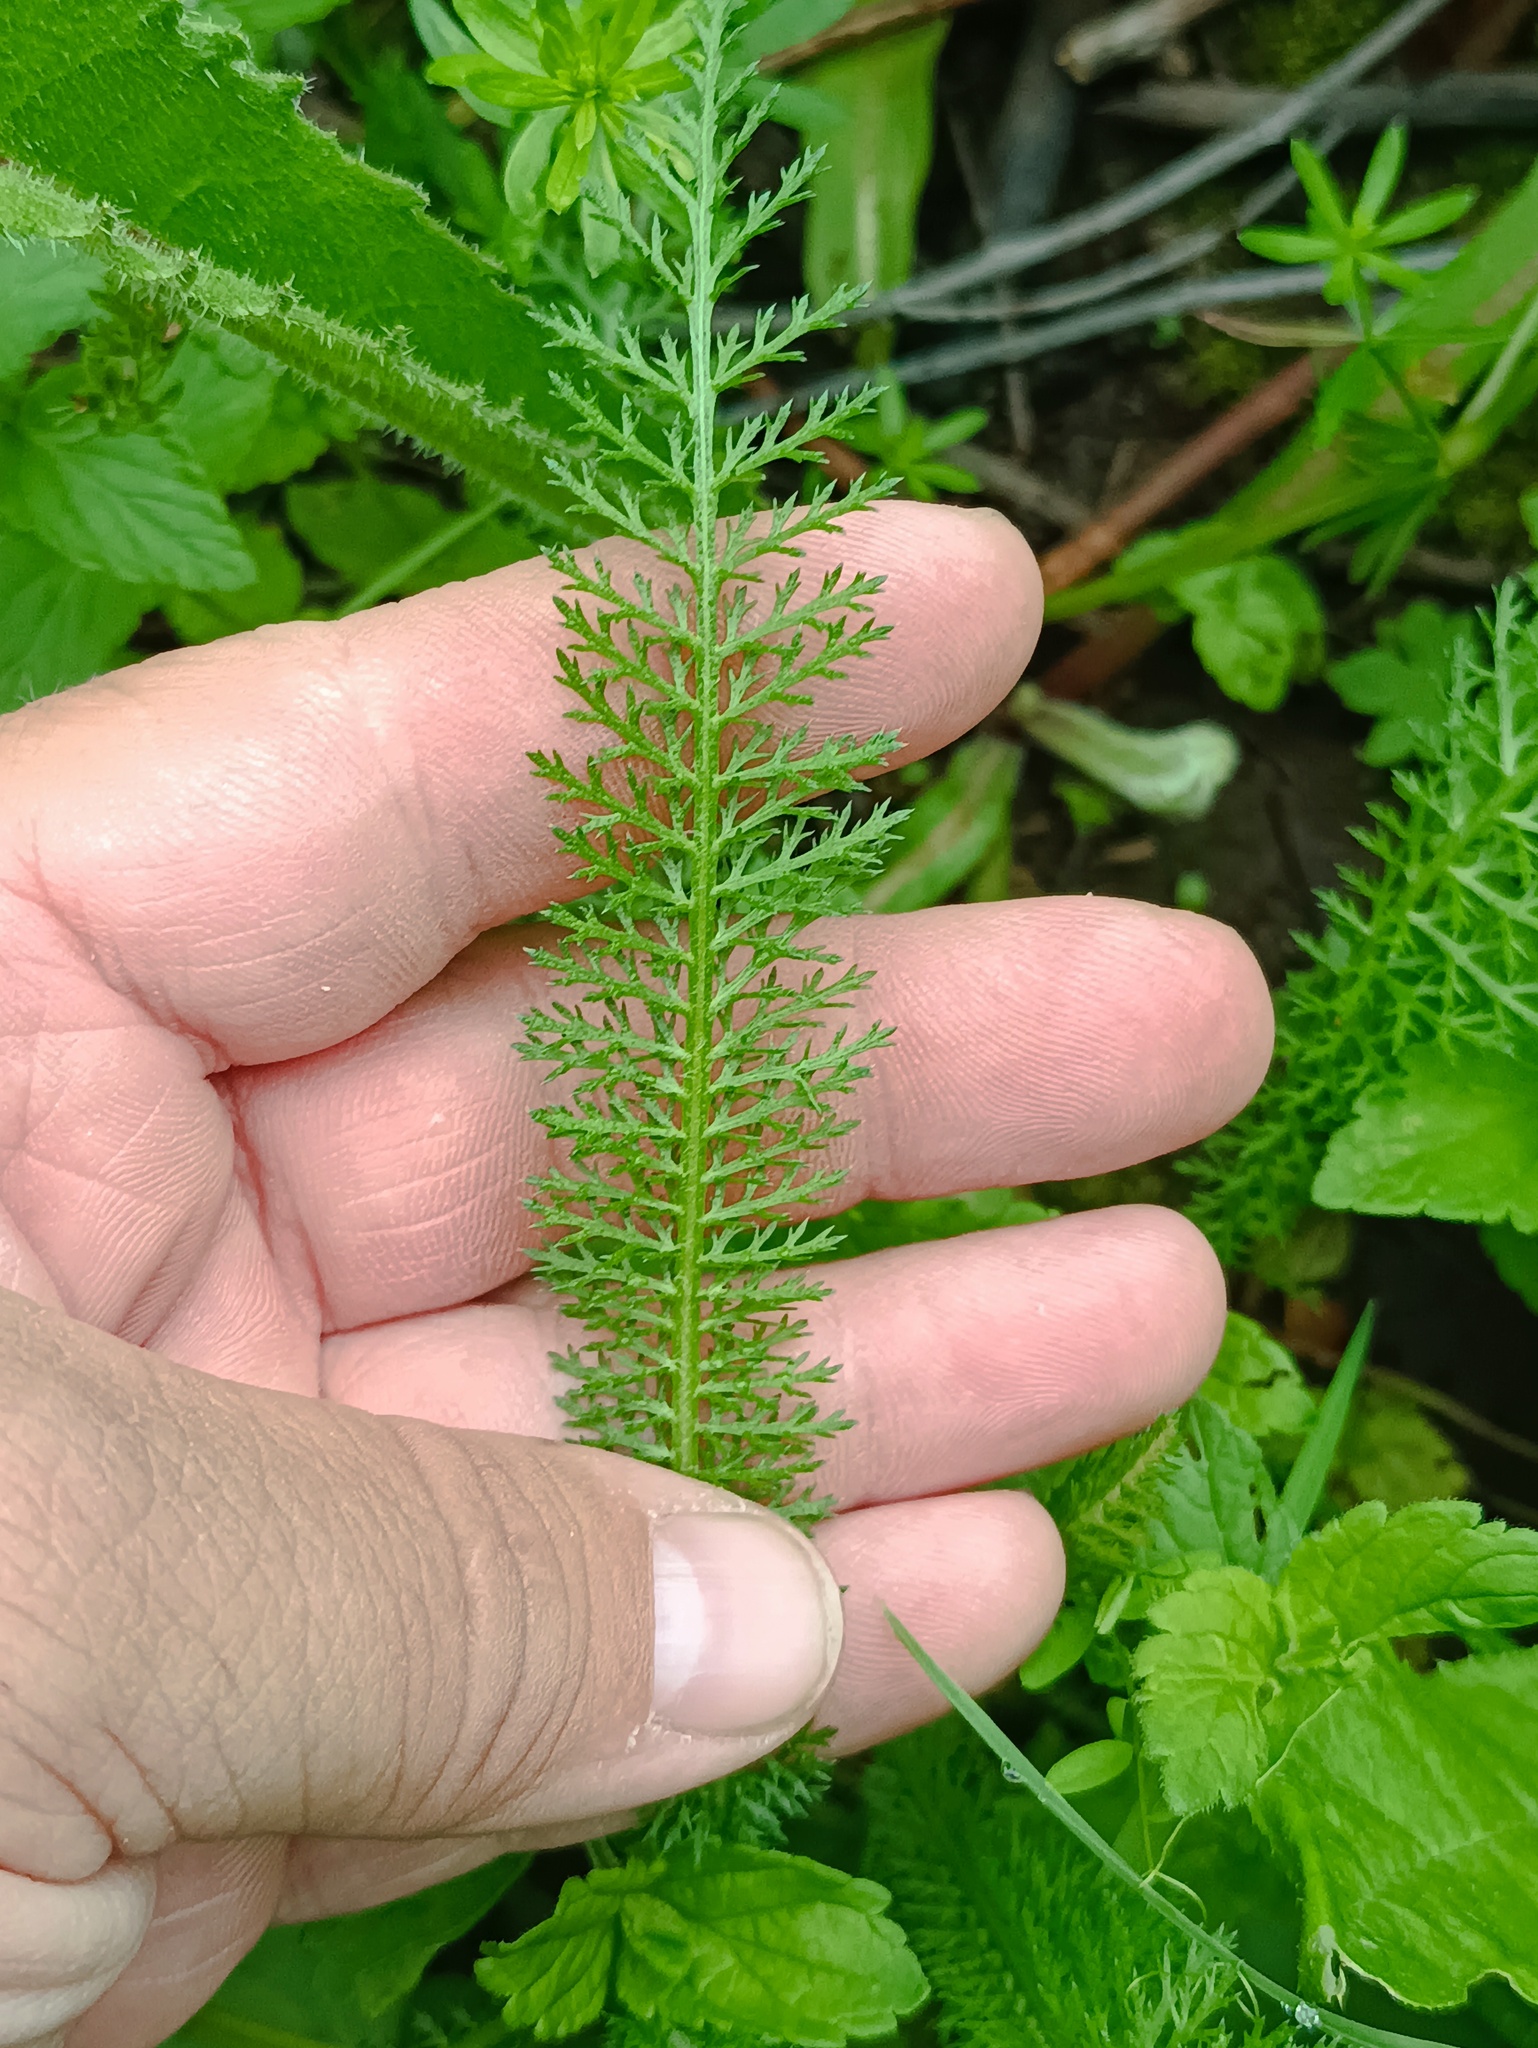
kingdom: Plantae
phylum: Tracheophyta
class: Magnoliopsida
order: Asterales
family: Asteraceae
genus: Achillea
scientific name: Achillea millefolium
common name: Yarrow
